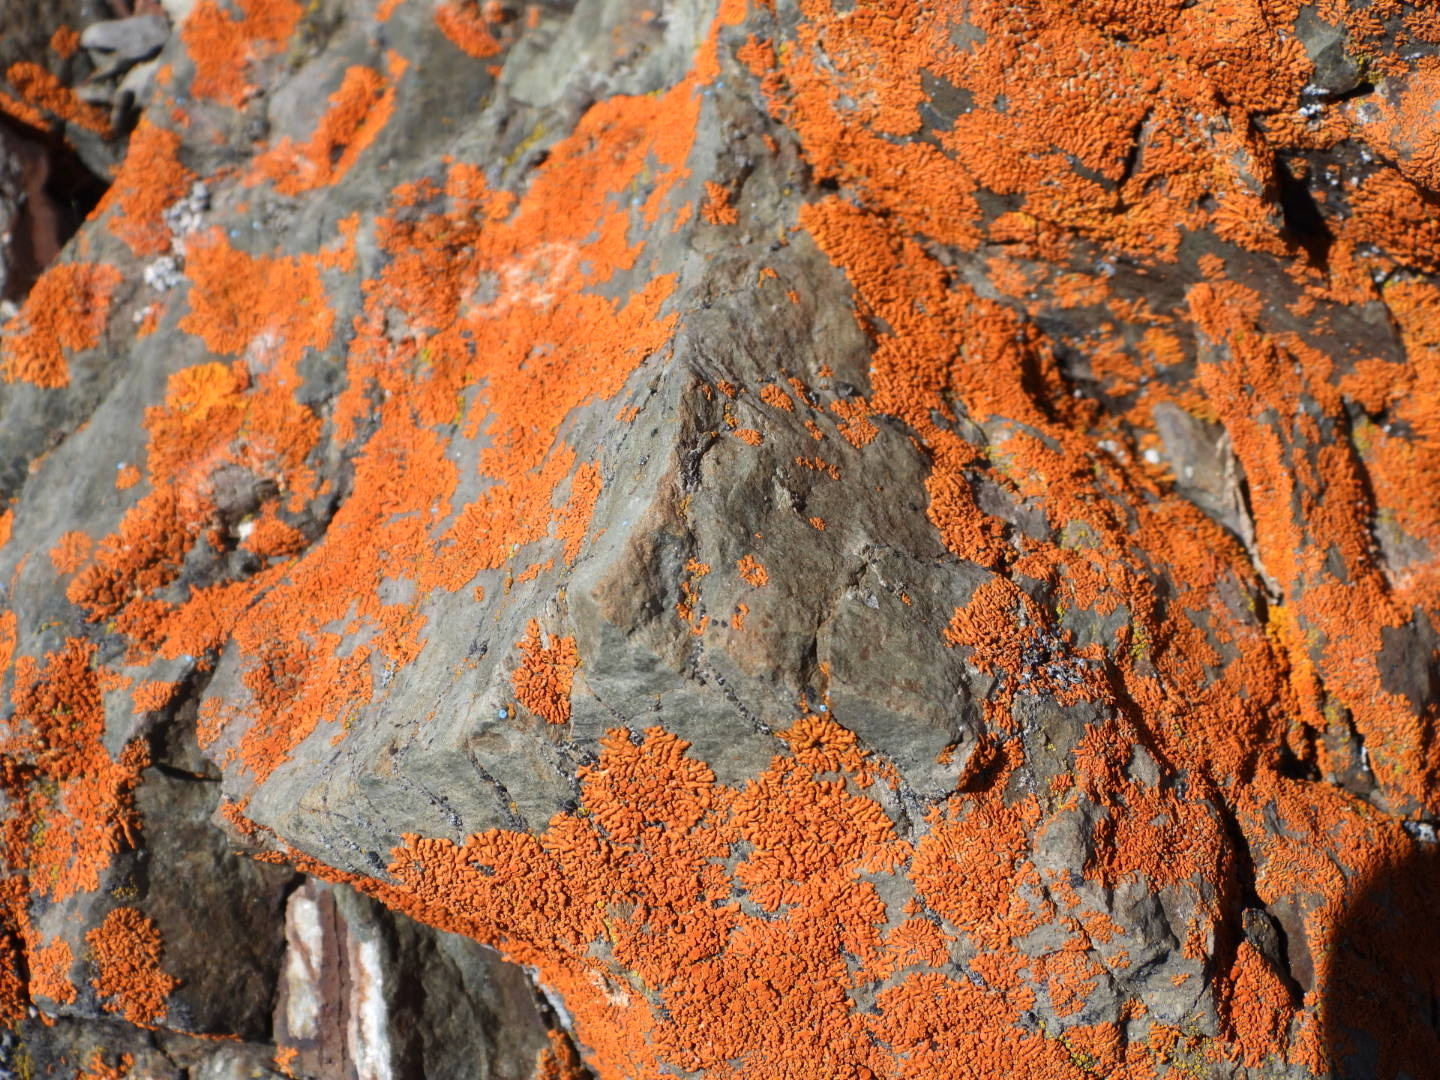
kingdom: Fungi
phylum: Ascomycota
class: Lecanoromycetes
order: Teloschistales
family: Teloschistaceae
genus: Xanthoria
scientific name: Xanthoria elegans
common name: Elegant sunburst lichen
